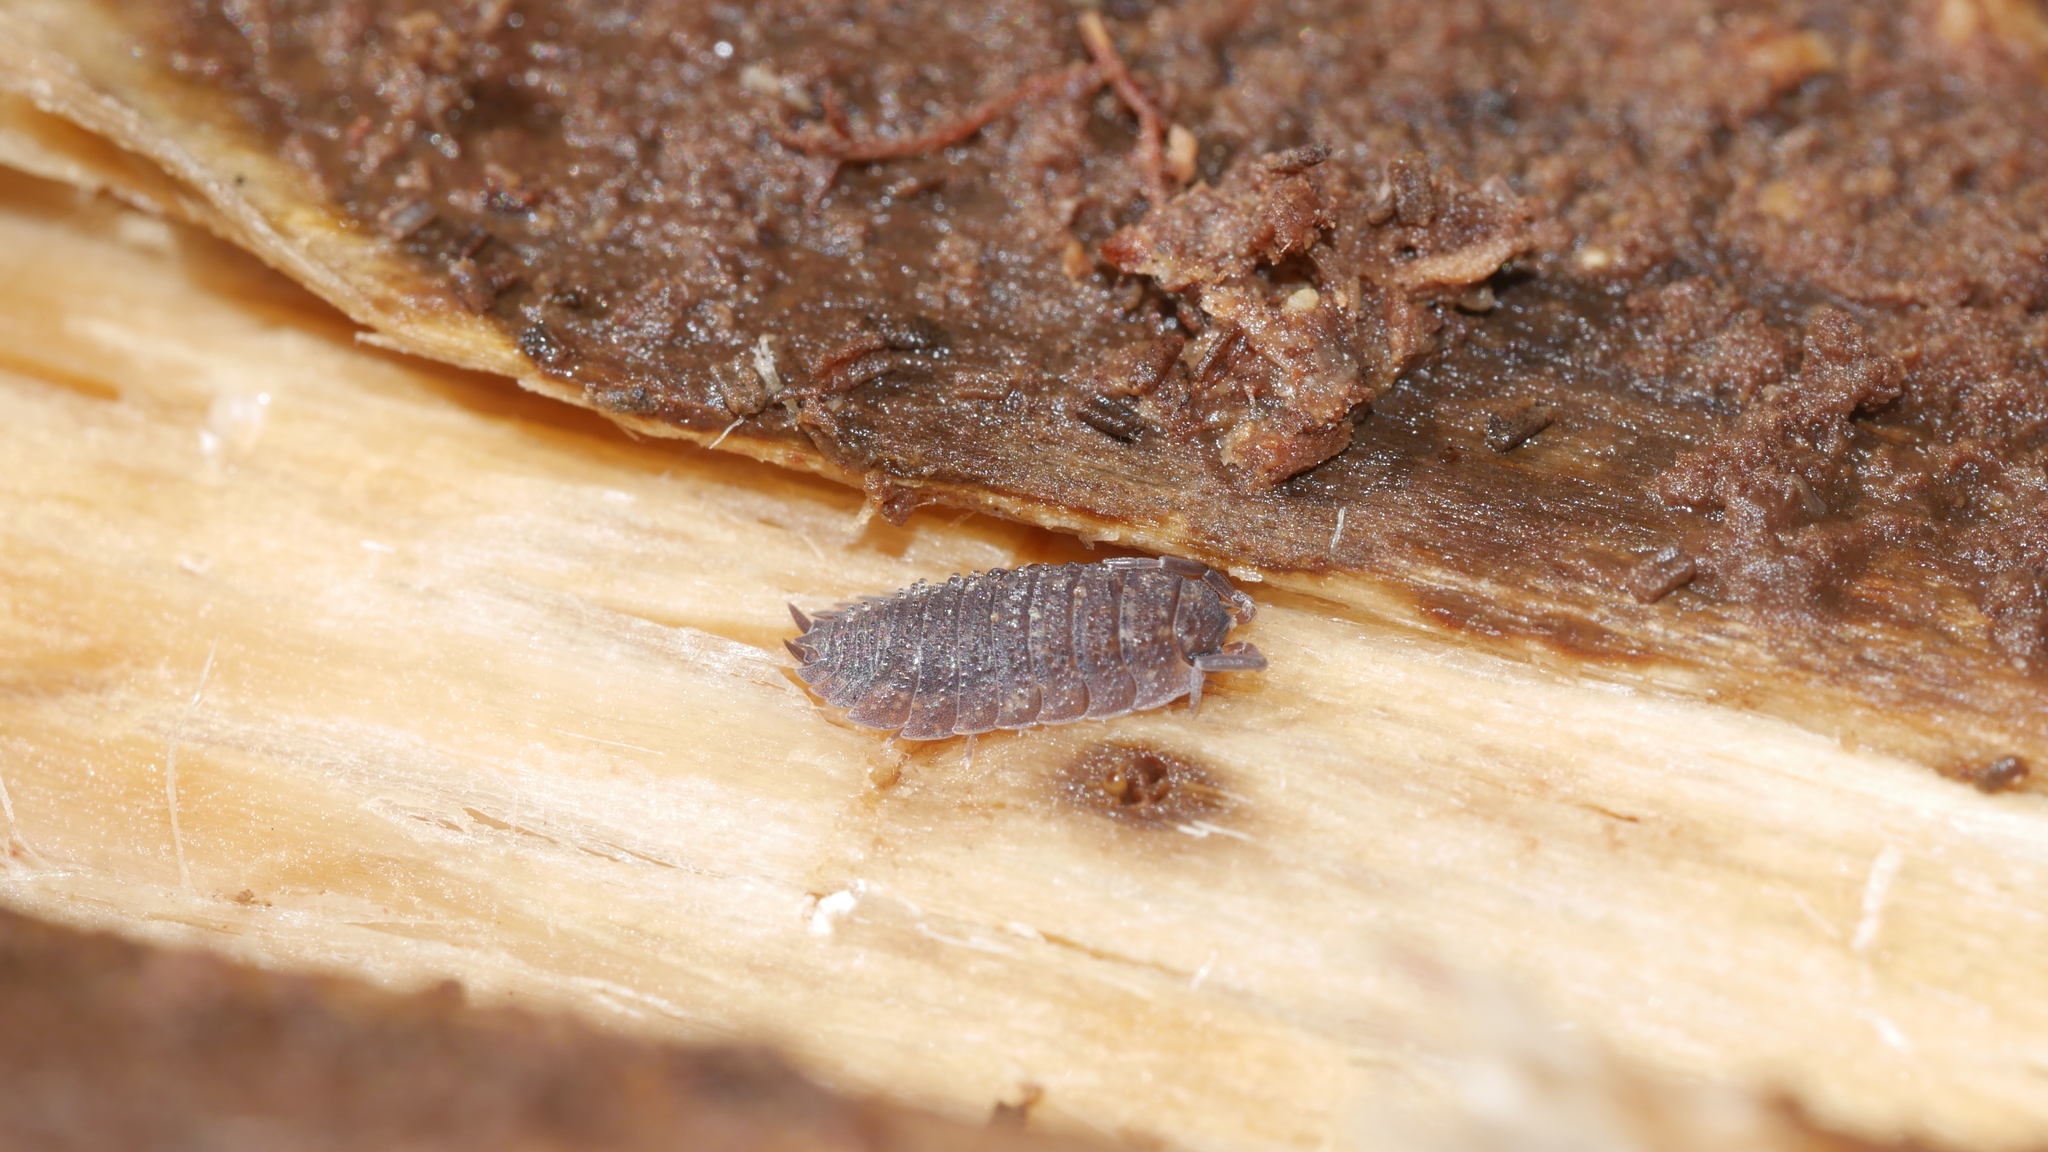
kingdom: Animalia
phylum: Arthropoda
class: Malacostraca
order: Isopoda
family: Porcellionidae
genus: Porcellio
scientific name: Porcellio scaber
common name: Common rough woodlouse
